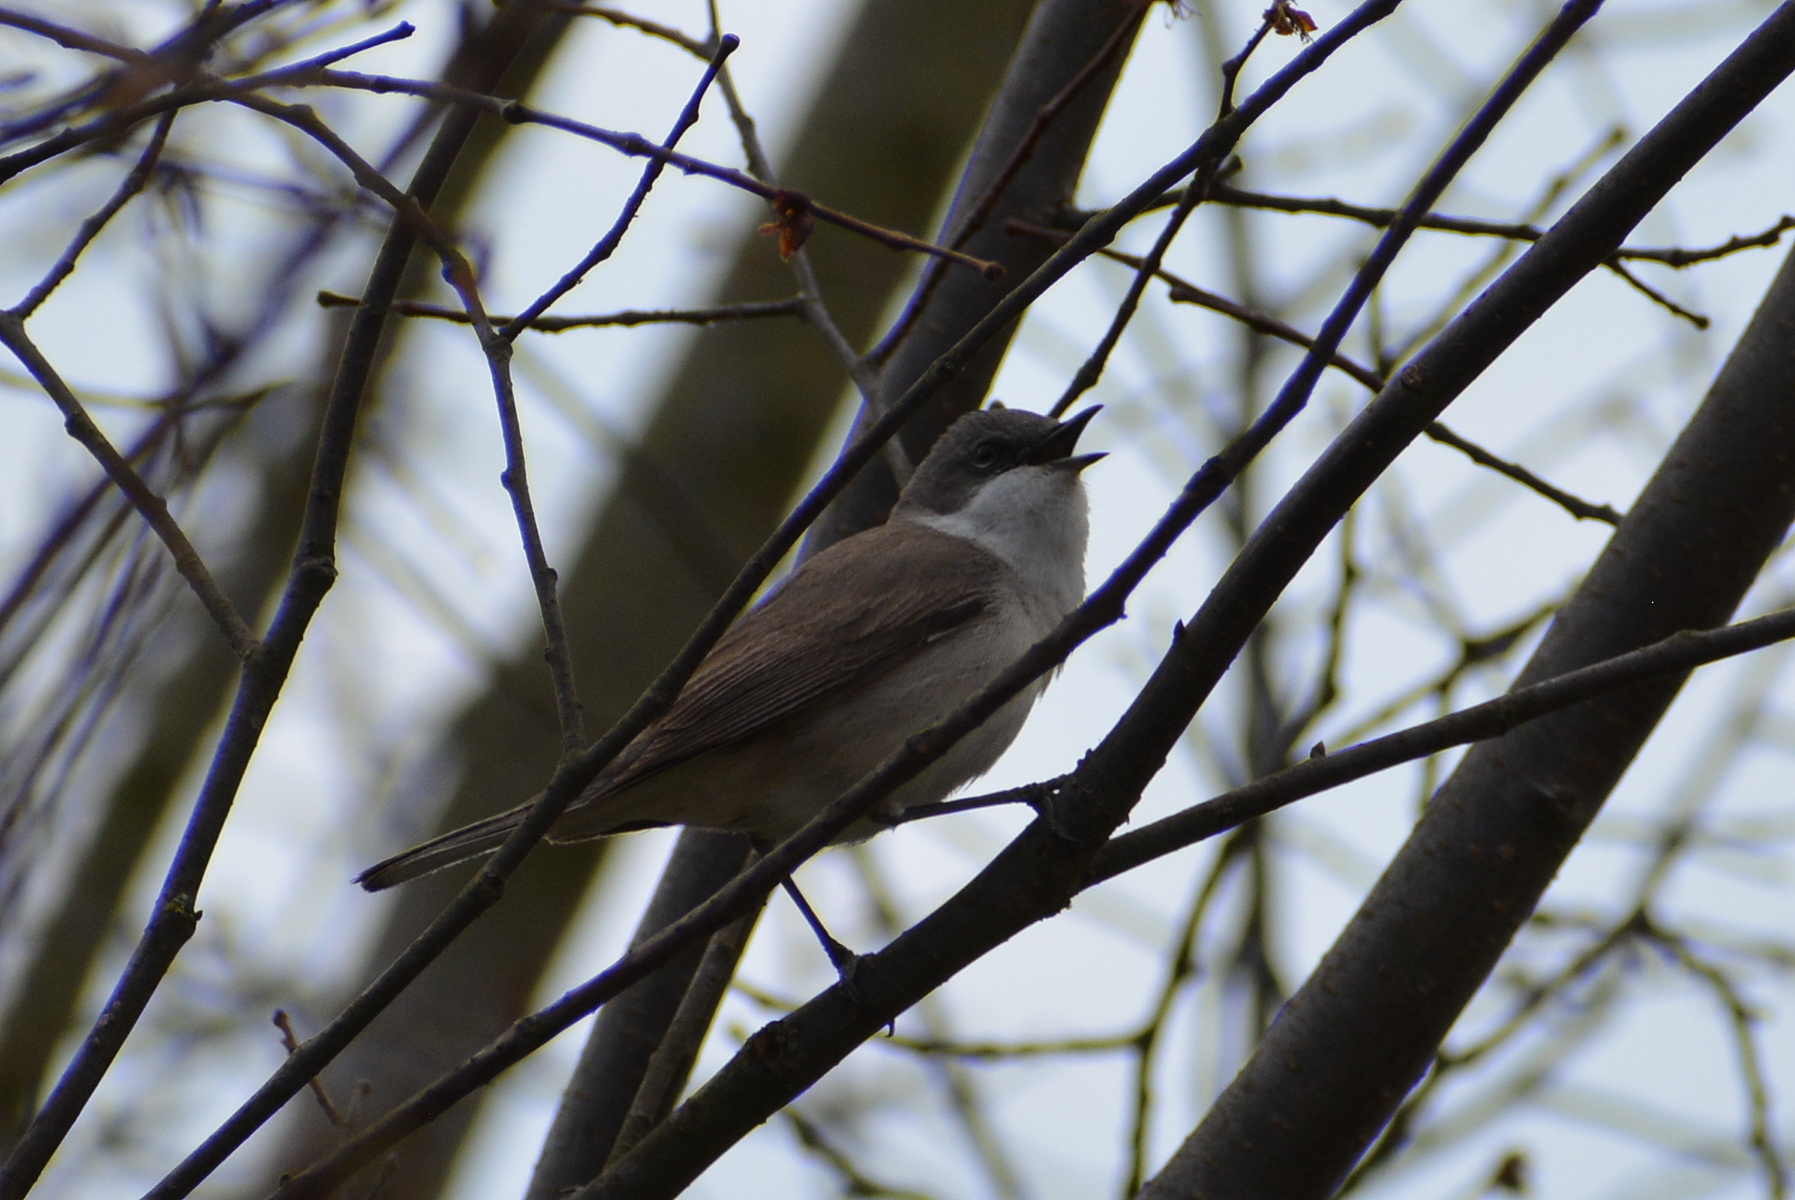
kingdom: Animalia
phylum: Chordata
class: Aves
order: Passeriformes
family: Sylviidae
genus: Sylvia
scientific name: Sylvia curruca
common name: Lesser whitethroat
